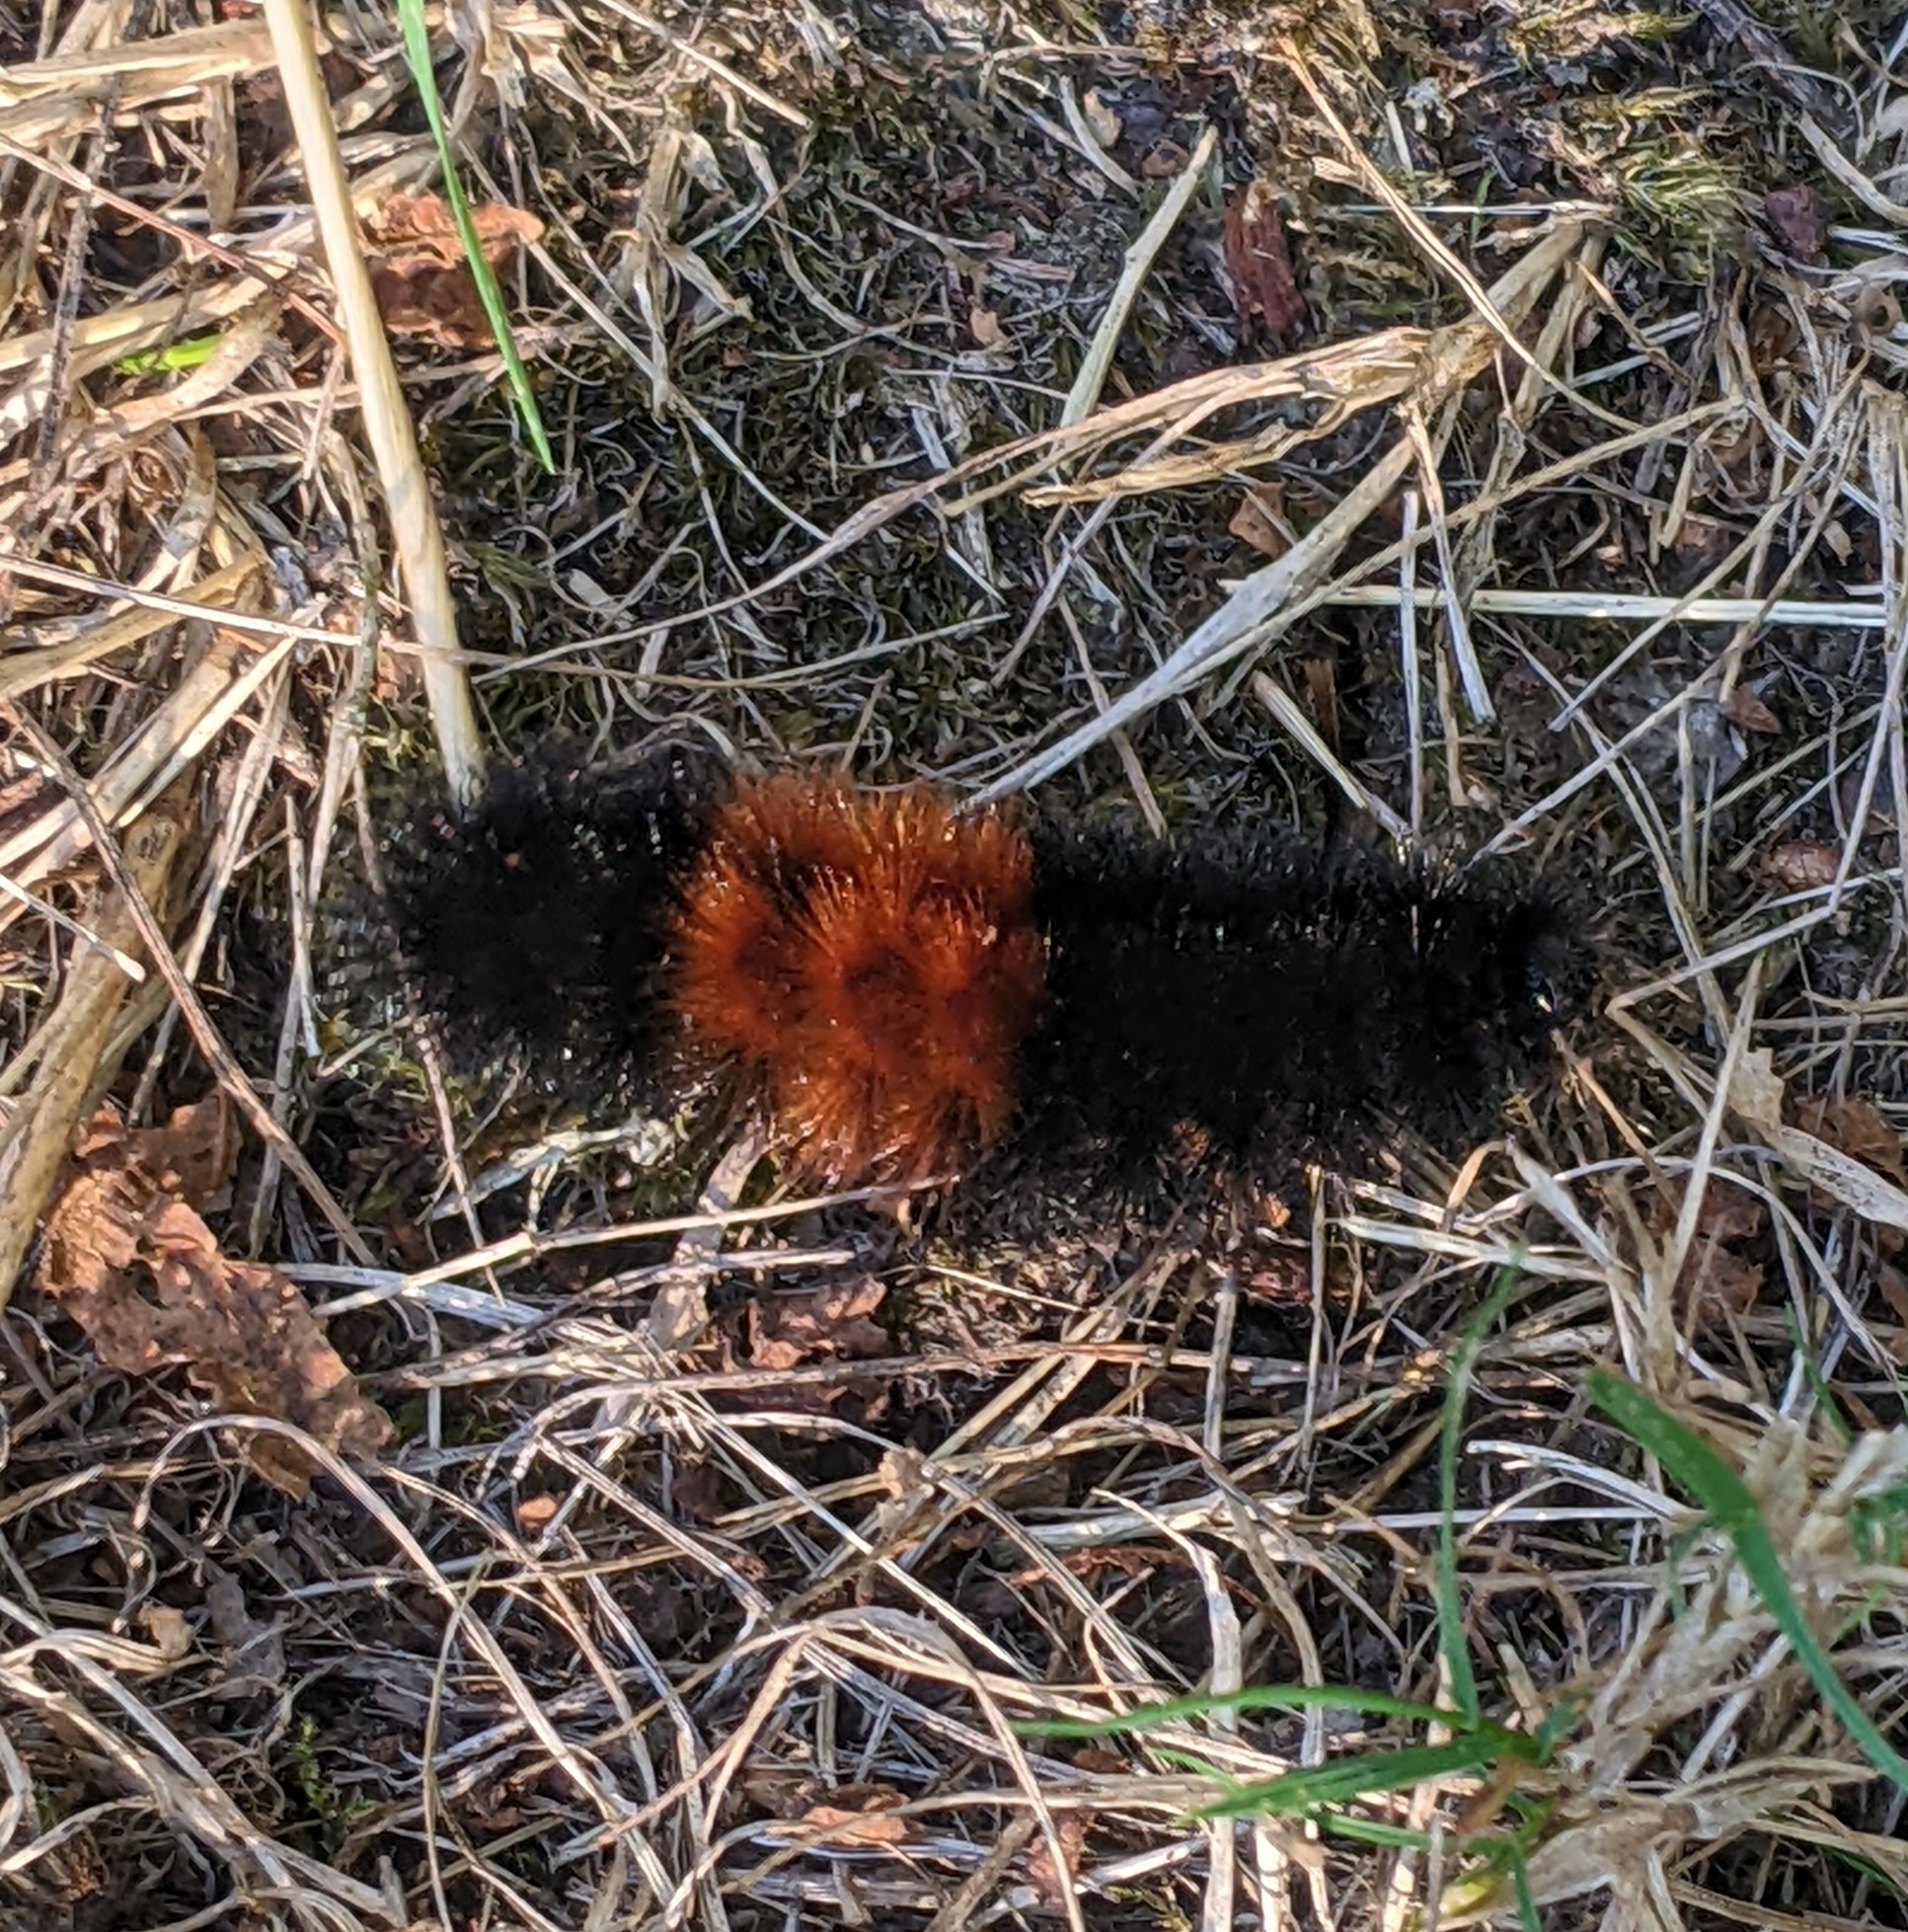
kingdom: Animalia
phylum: Arthropoda
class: Insecta
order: Lepidoptera
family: Erebidae
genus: Pyrrharctia
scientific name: Pyrrharctia isabella
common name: Isabella tiger moth
